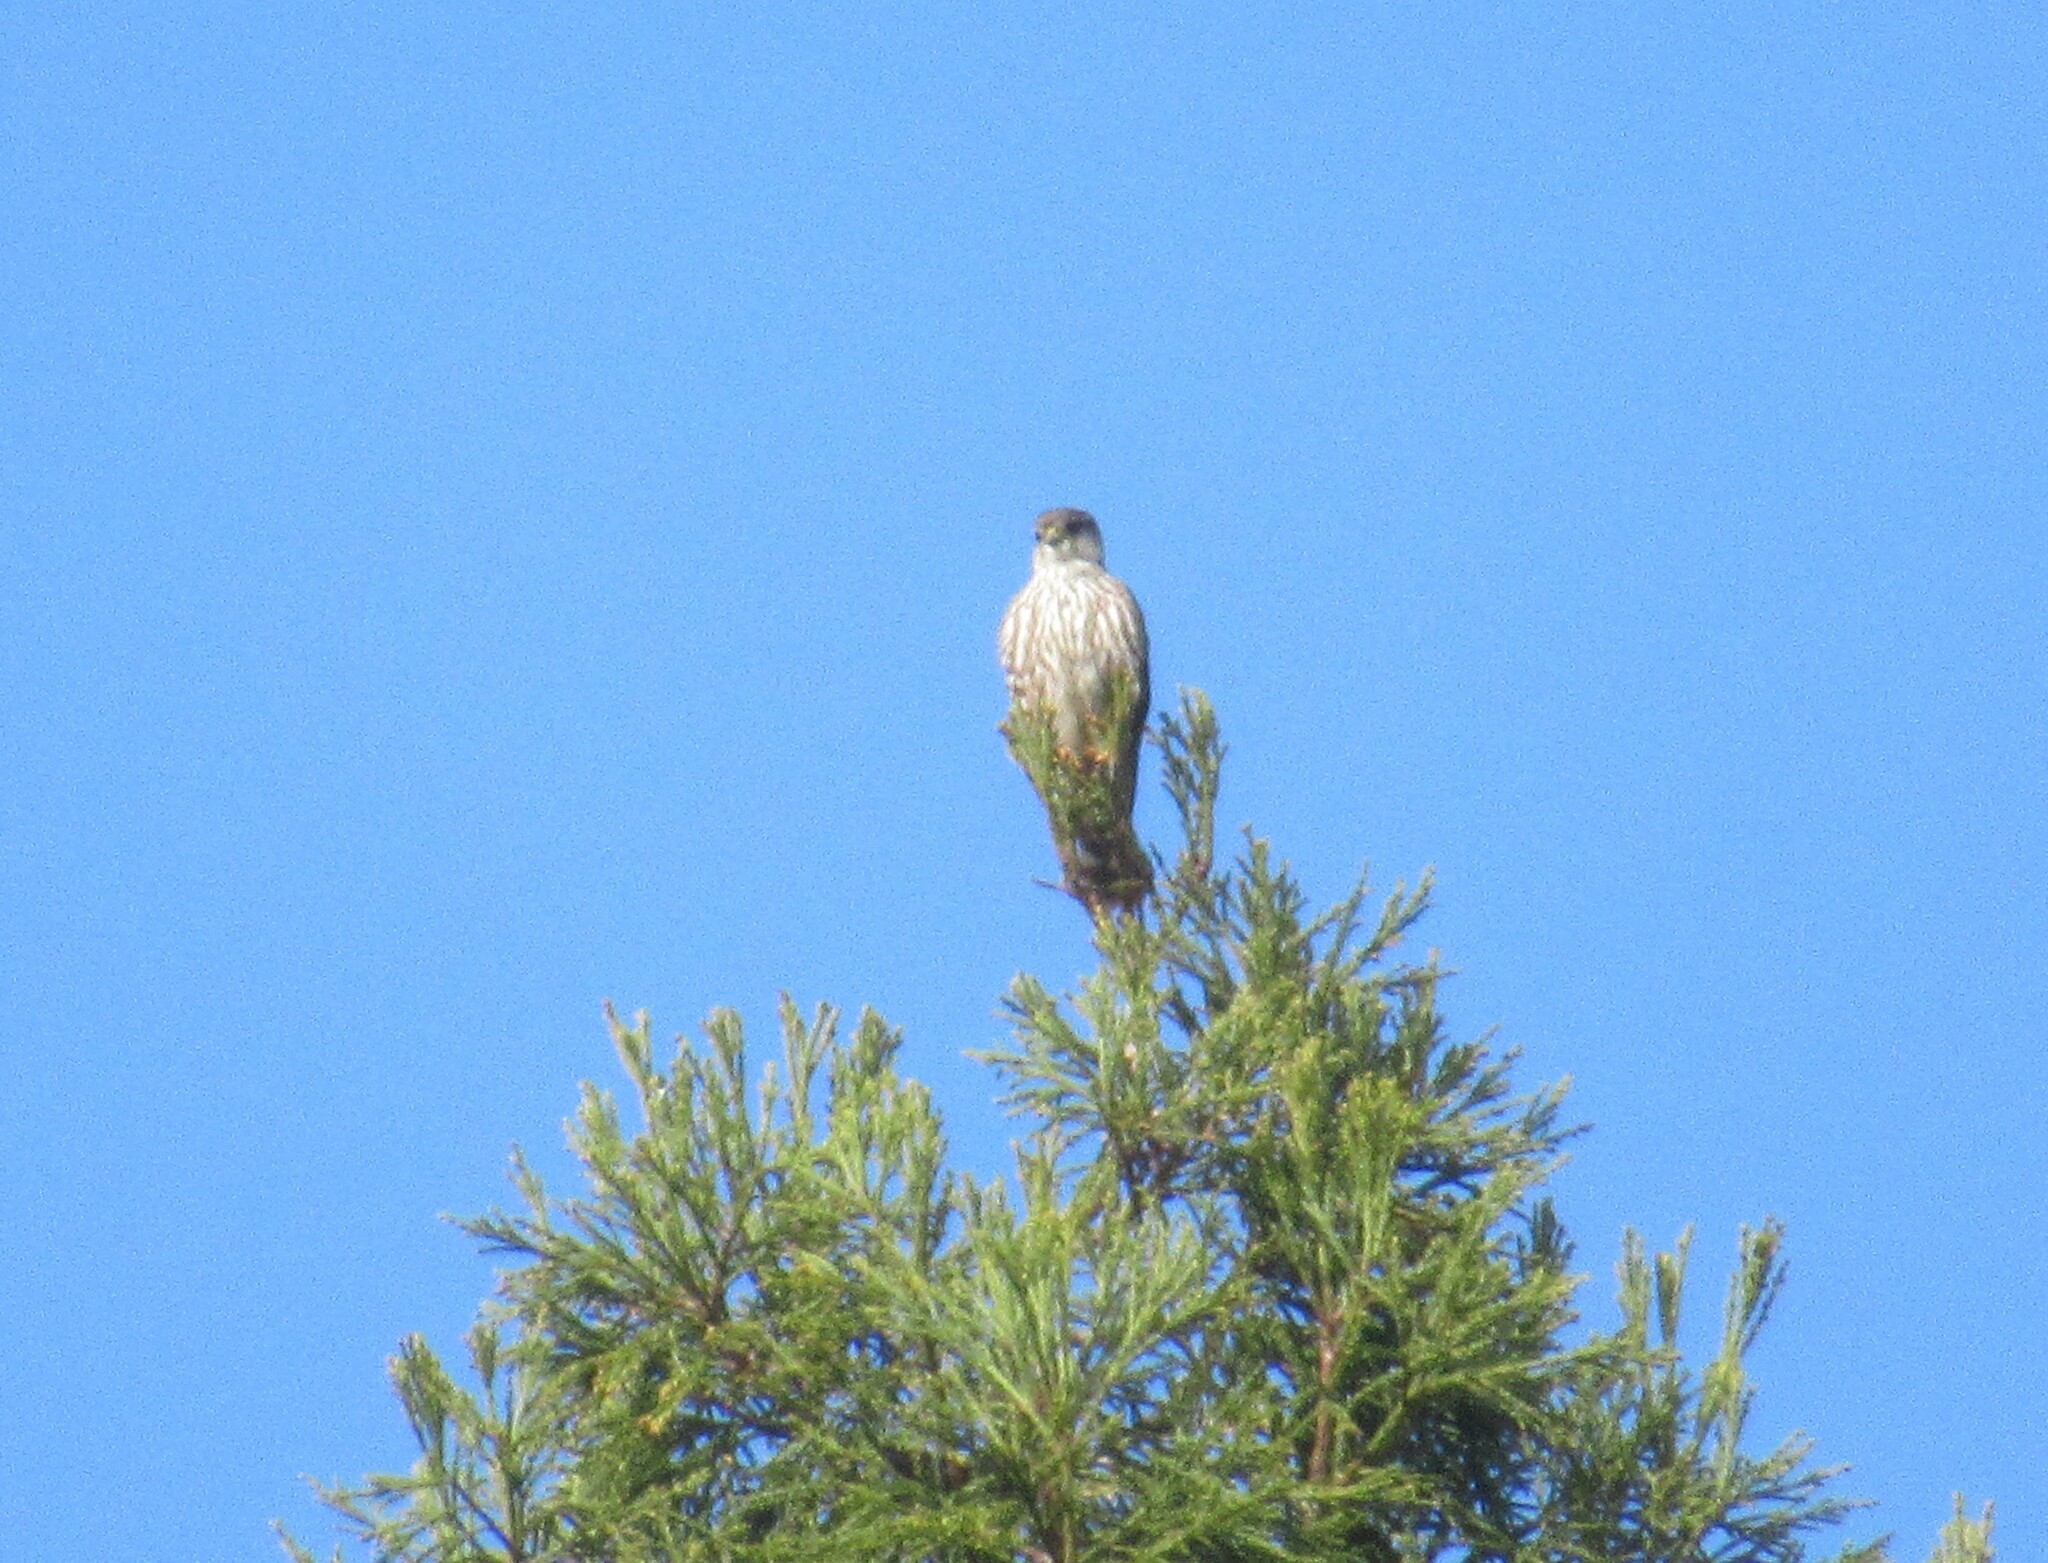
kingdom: Animalia
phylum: Chordata
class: Aves
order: Falconiformes
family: Falconidae
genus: Falco
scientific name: Falco columbarius
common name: Merlin
